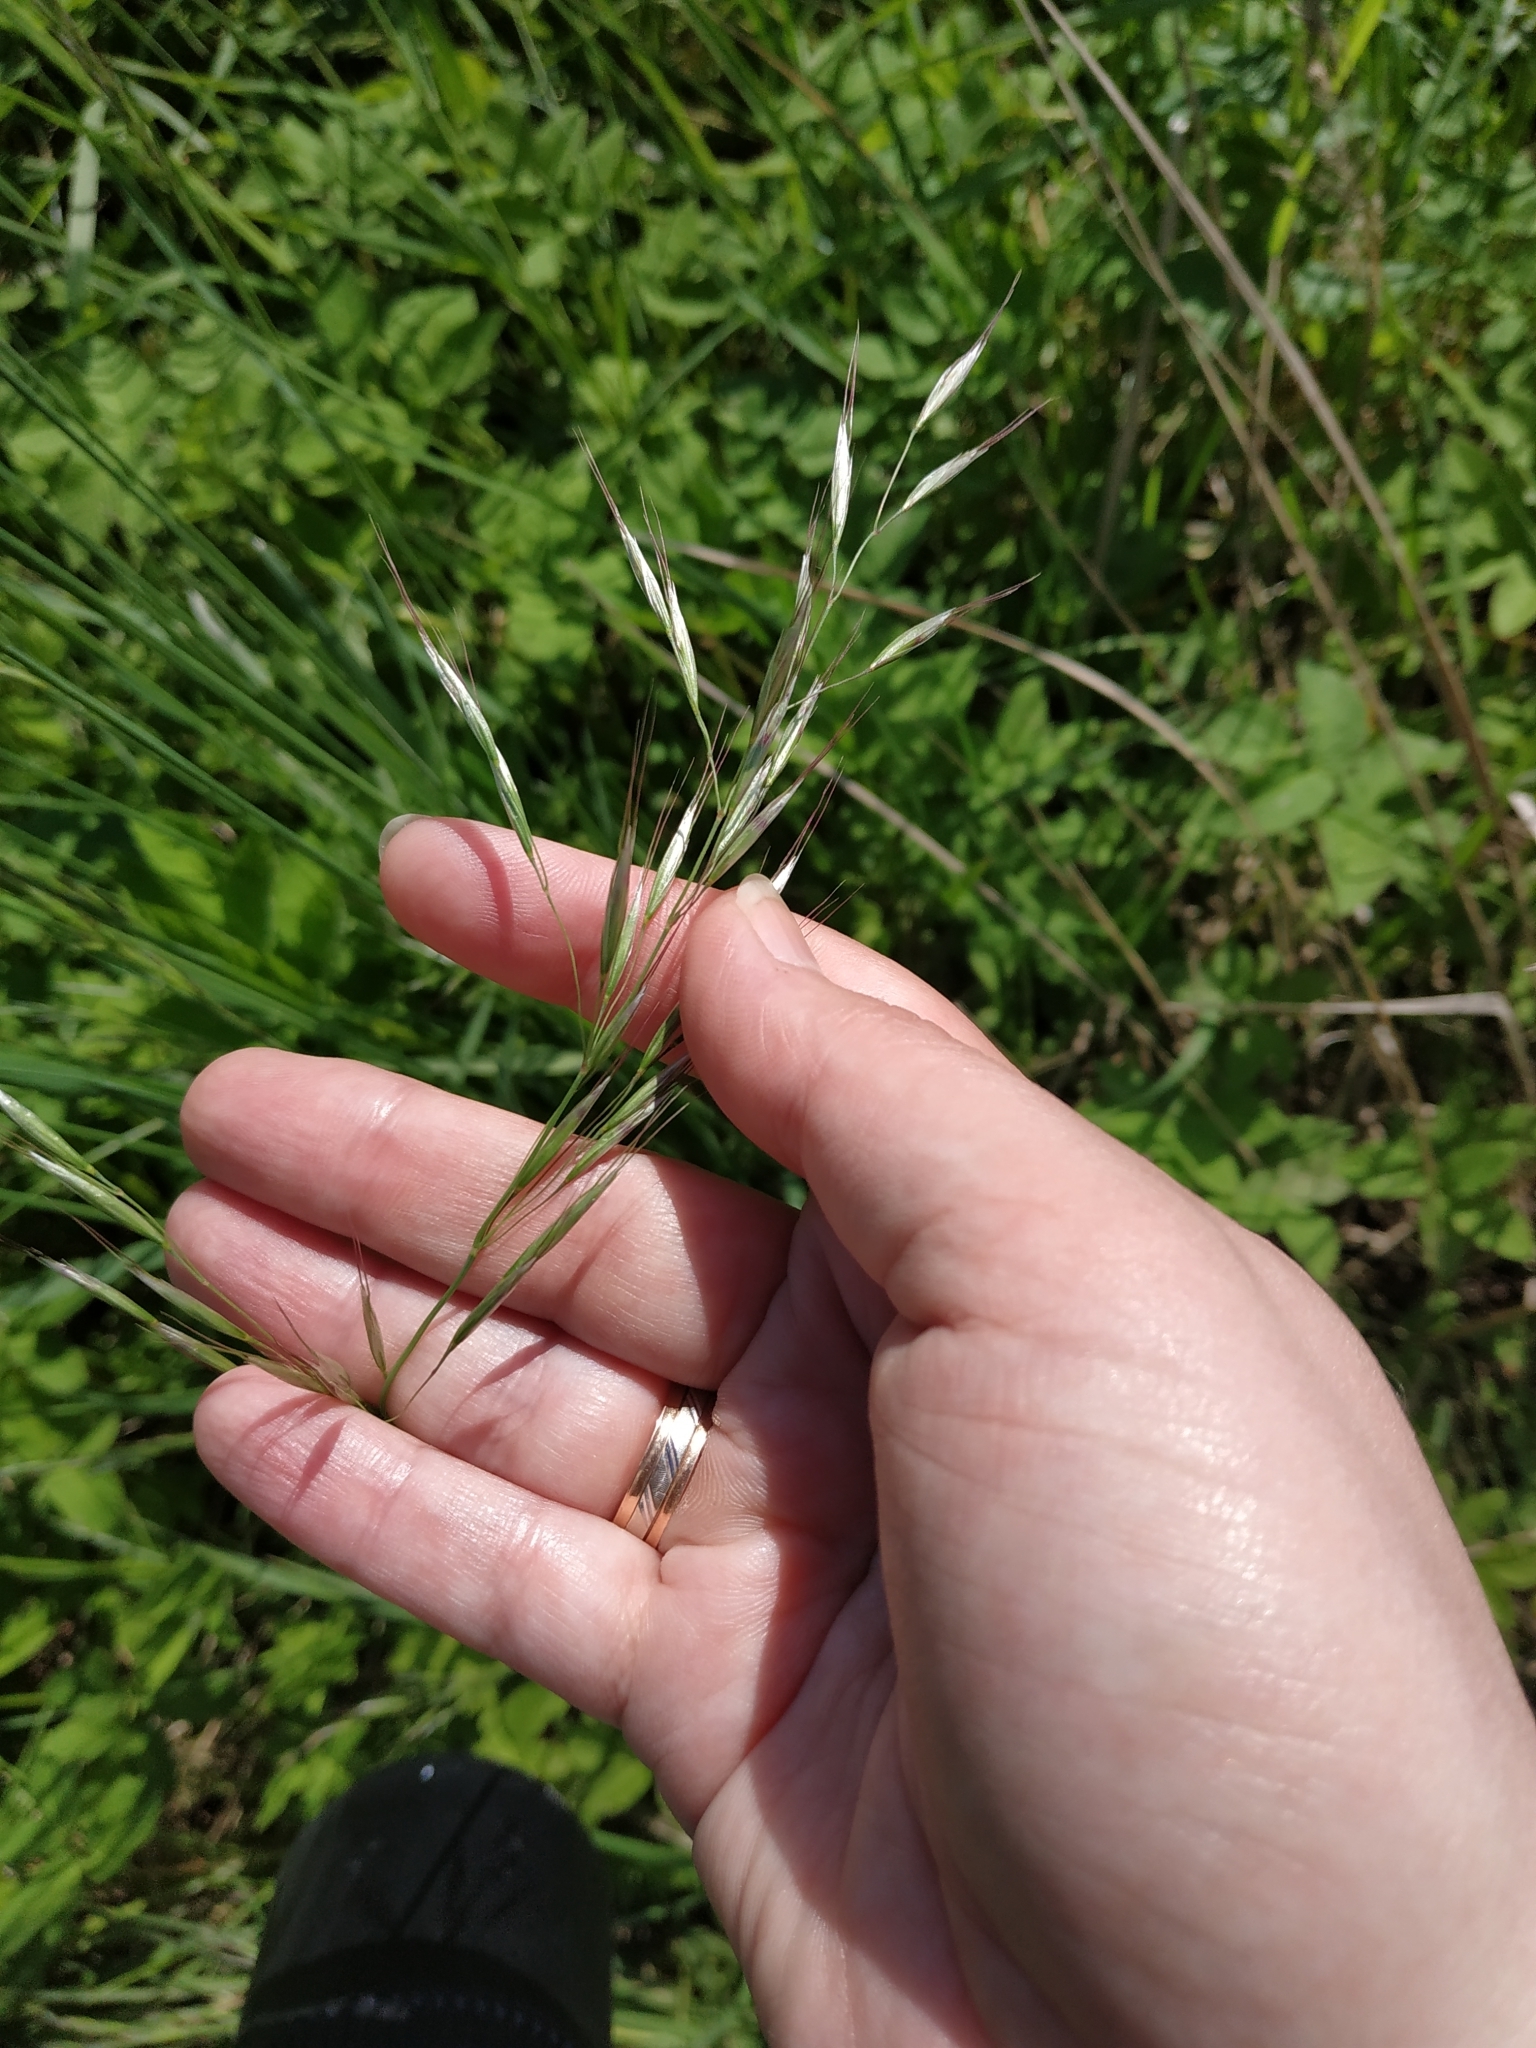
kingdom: Plantae
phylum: Tracheophyta
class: Liliopsida
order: Poales
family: Poaceae
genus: Arrhenatherum
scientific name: Arrhenatherum elatius
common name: Tall oatgrass
